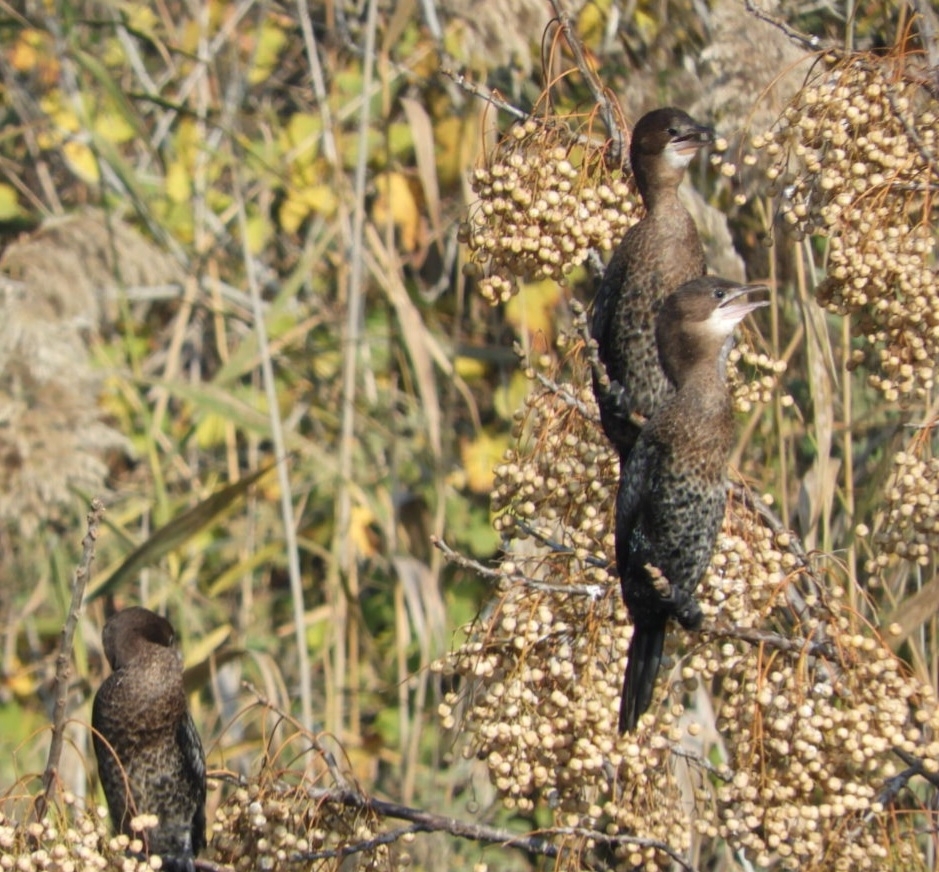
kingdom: Animalia
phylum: Chordata
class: Aves
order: Suliformes
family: Phalacrocoracidae
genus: Microcarbo
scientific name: Microcarbo pygmaeus
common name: Pygmy cormorant
